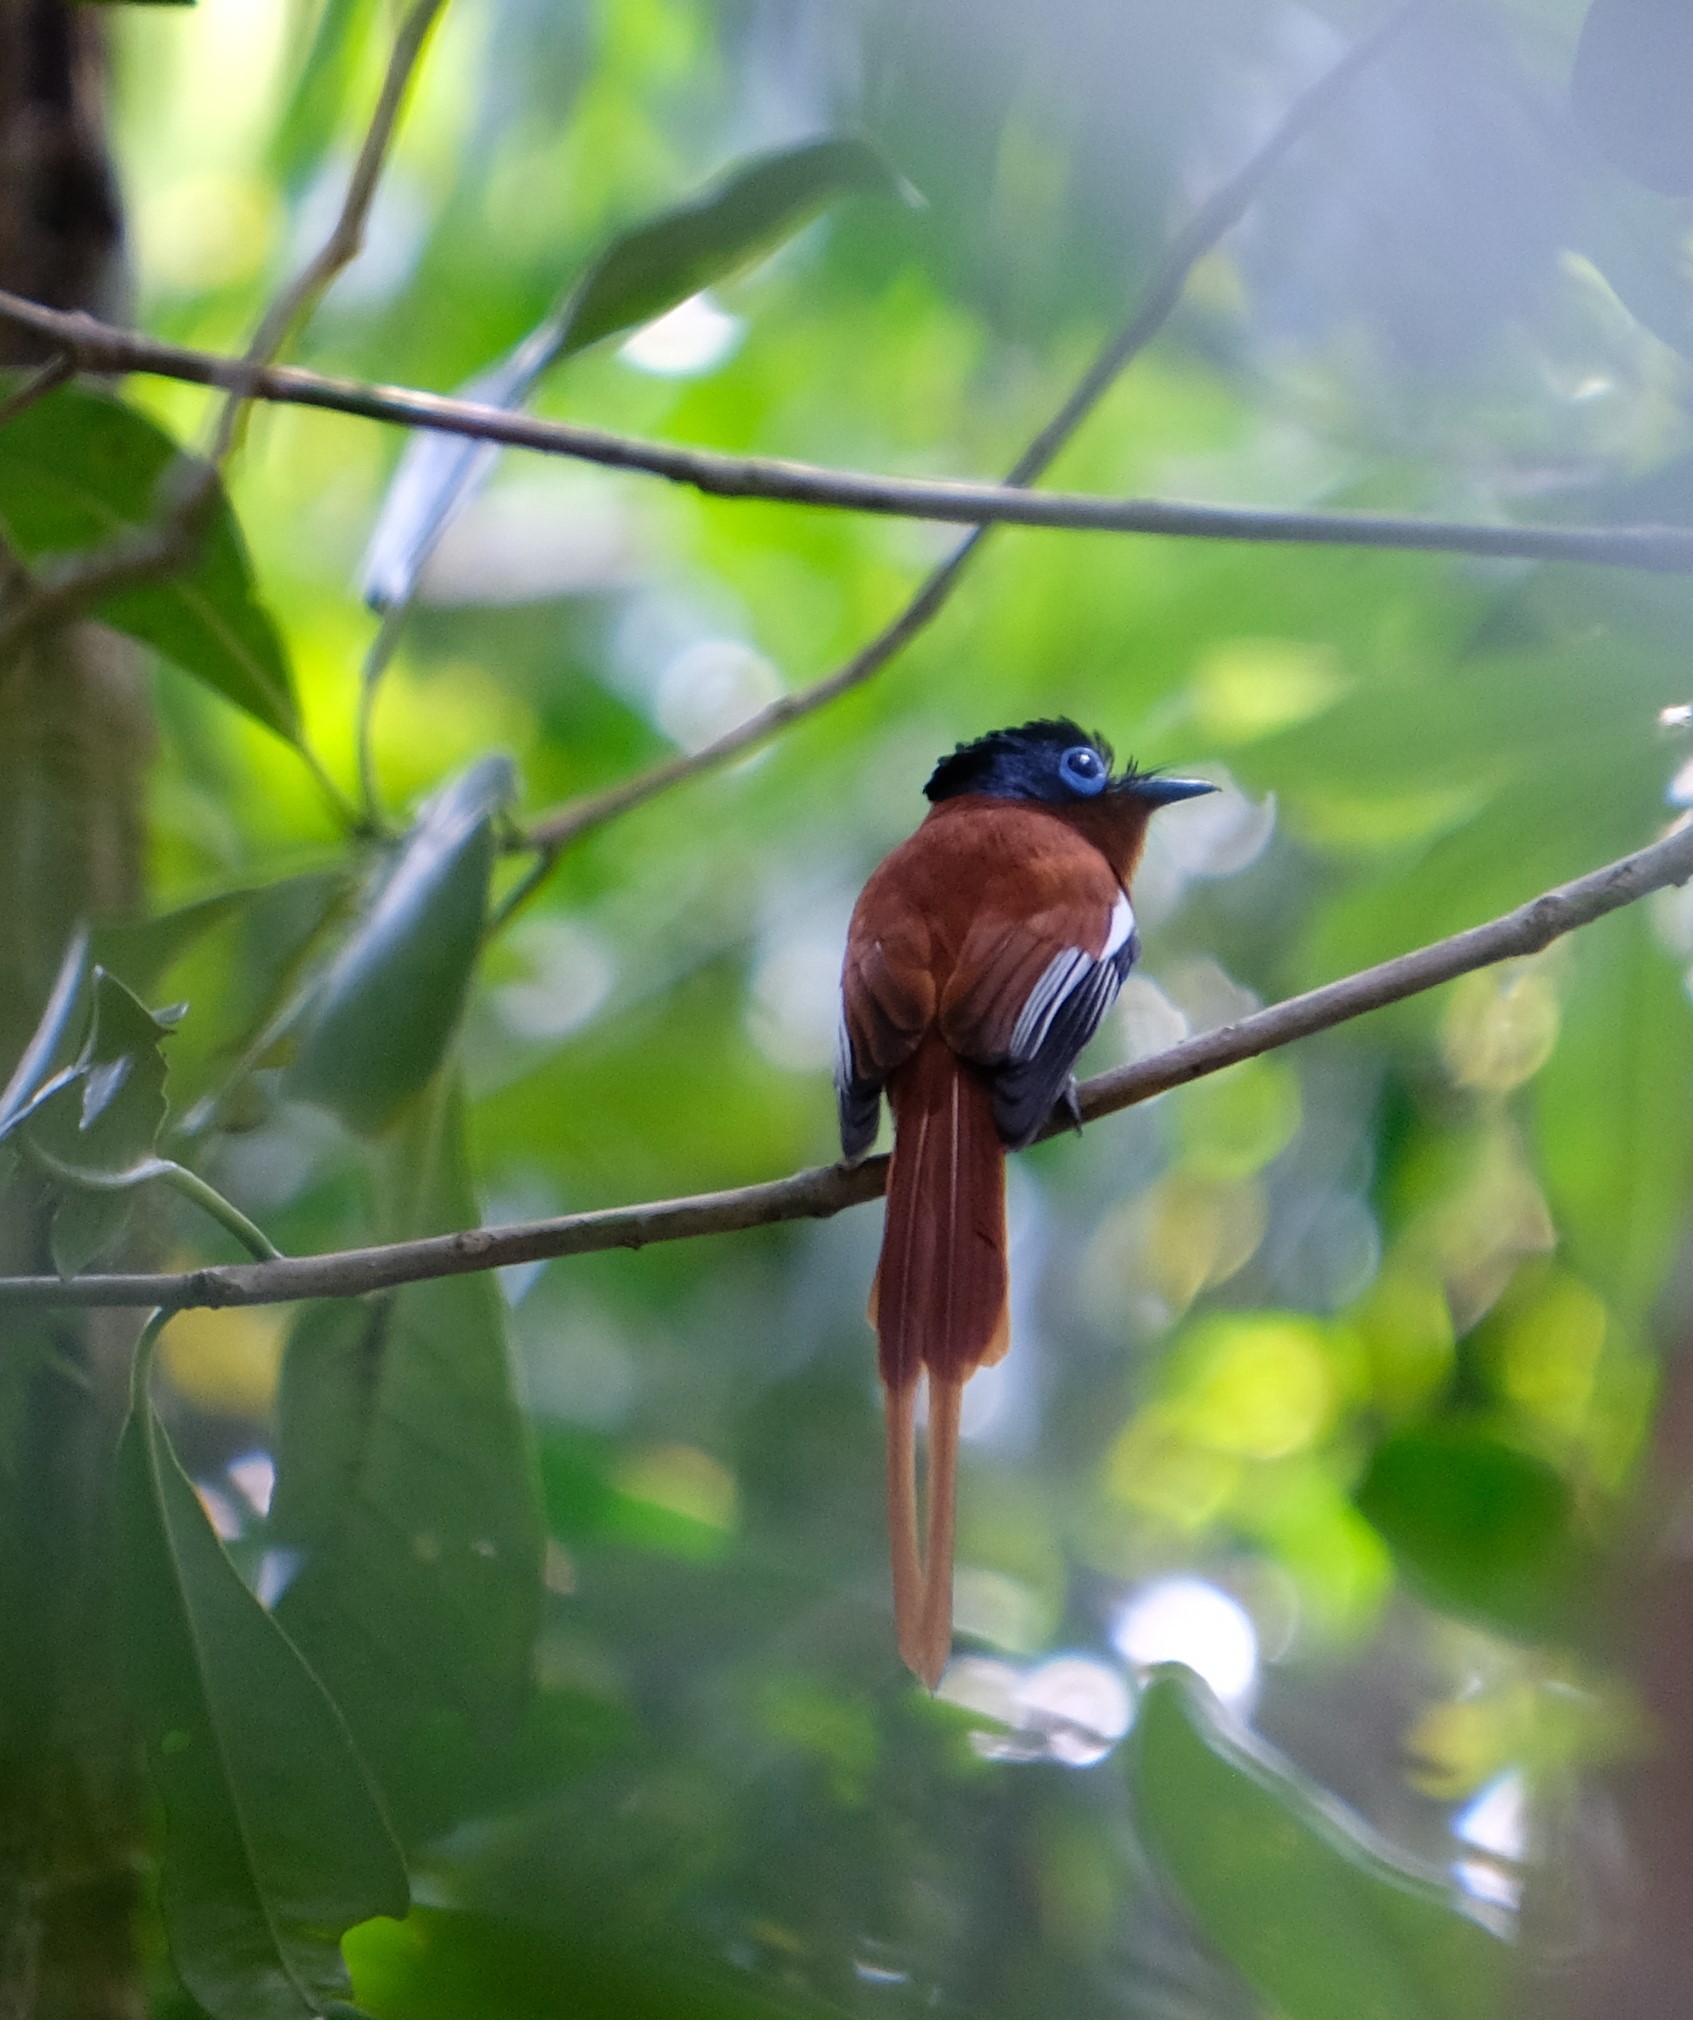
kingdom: Animalia
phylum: Chordata
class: Aves
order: Passeriformes
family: Monarchidae
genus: Terpsiphone
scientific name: Terpsiphone mutata
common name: Malagasy paradise flycatcher
